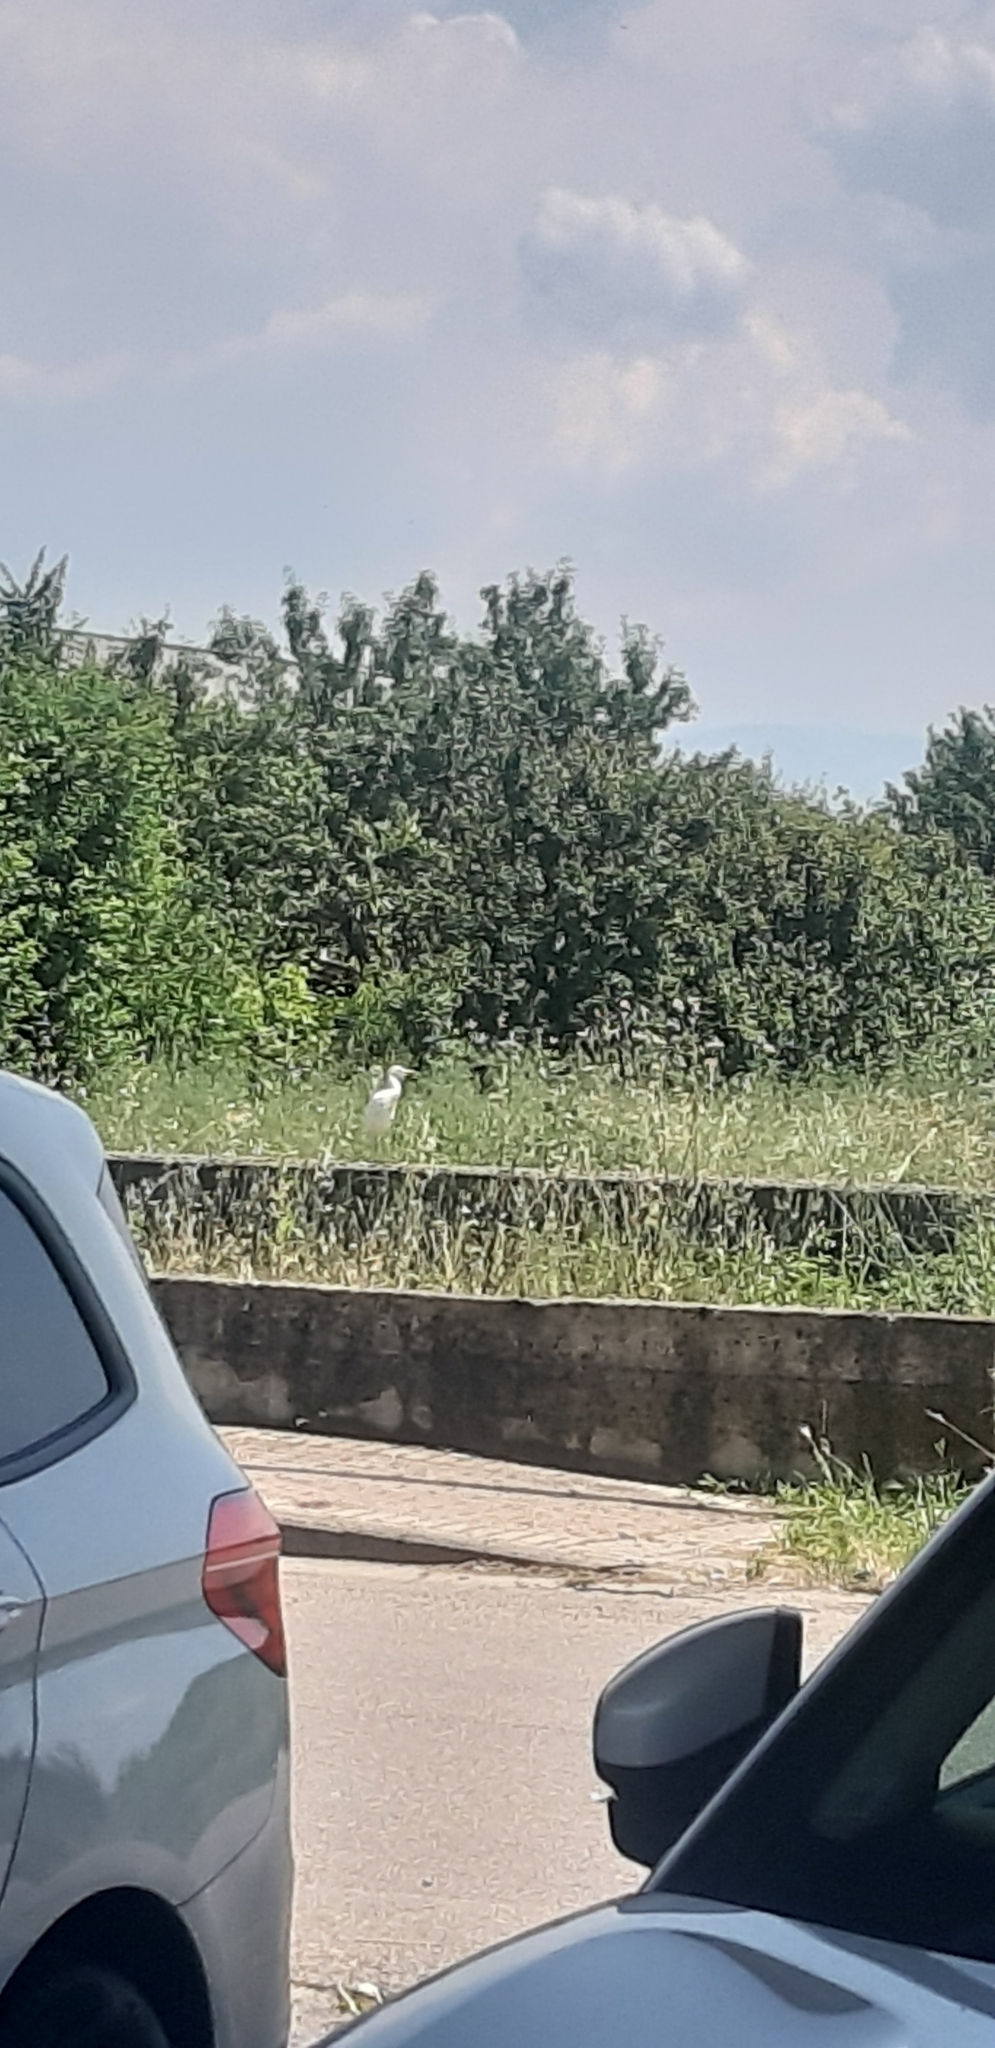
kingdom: Animalia
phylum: Chordata
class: Aves
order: Pelecaniformes
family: Ardeidae
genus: Bubulcus
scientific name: Bubulcus ibis
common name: Cattle egret
